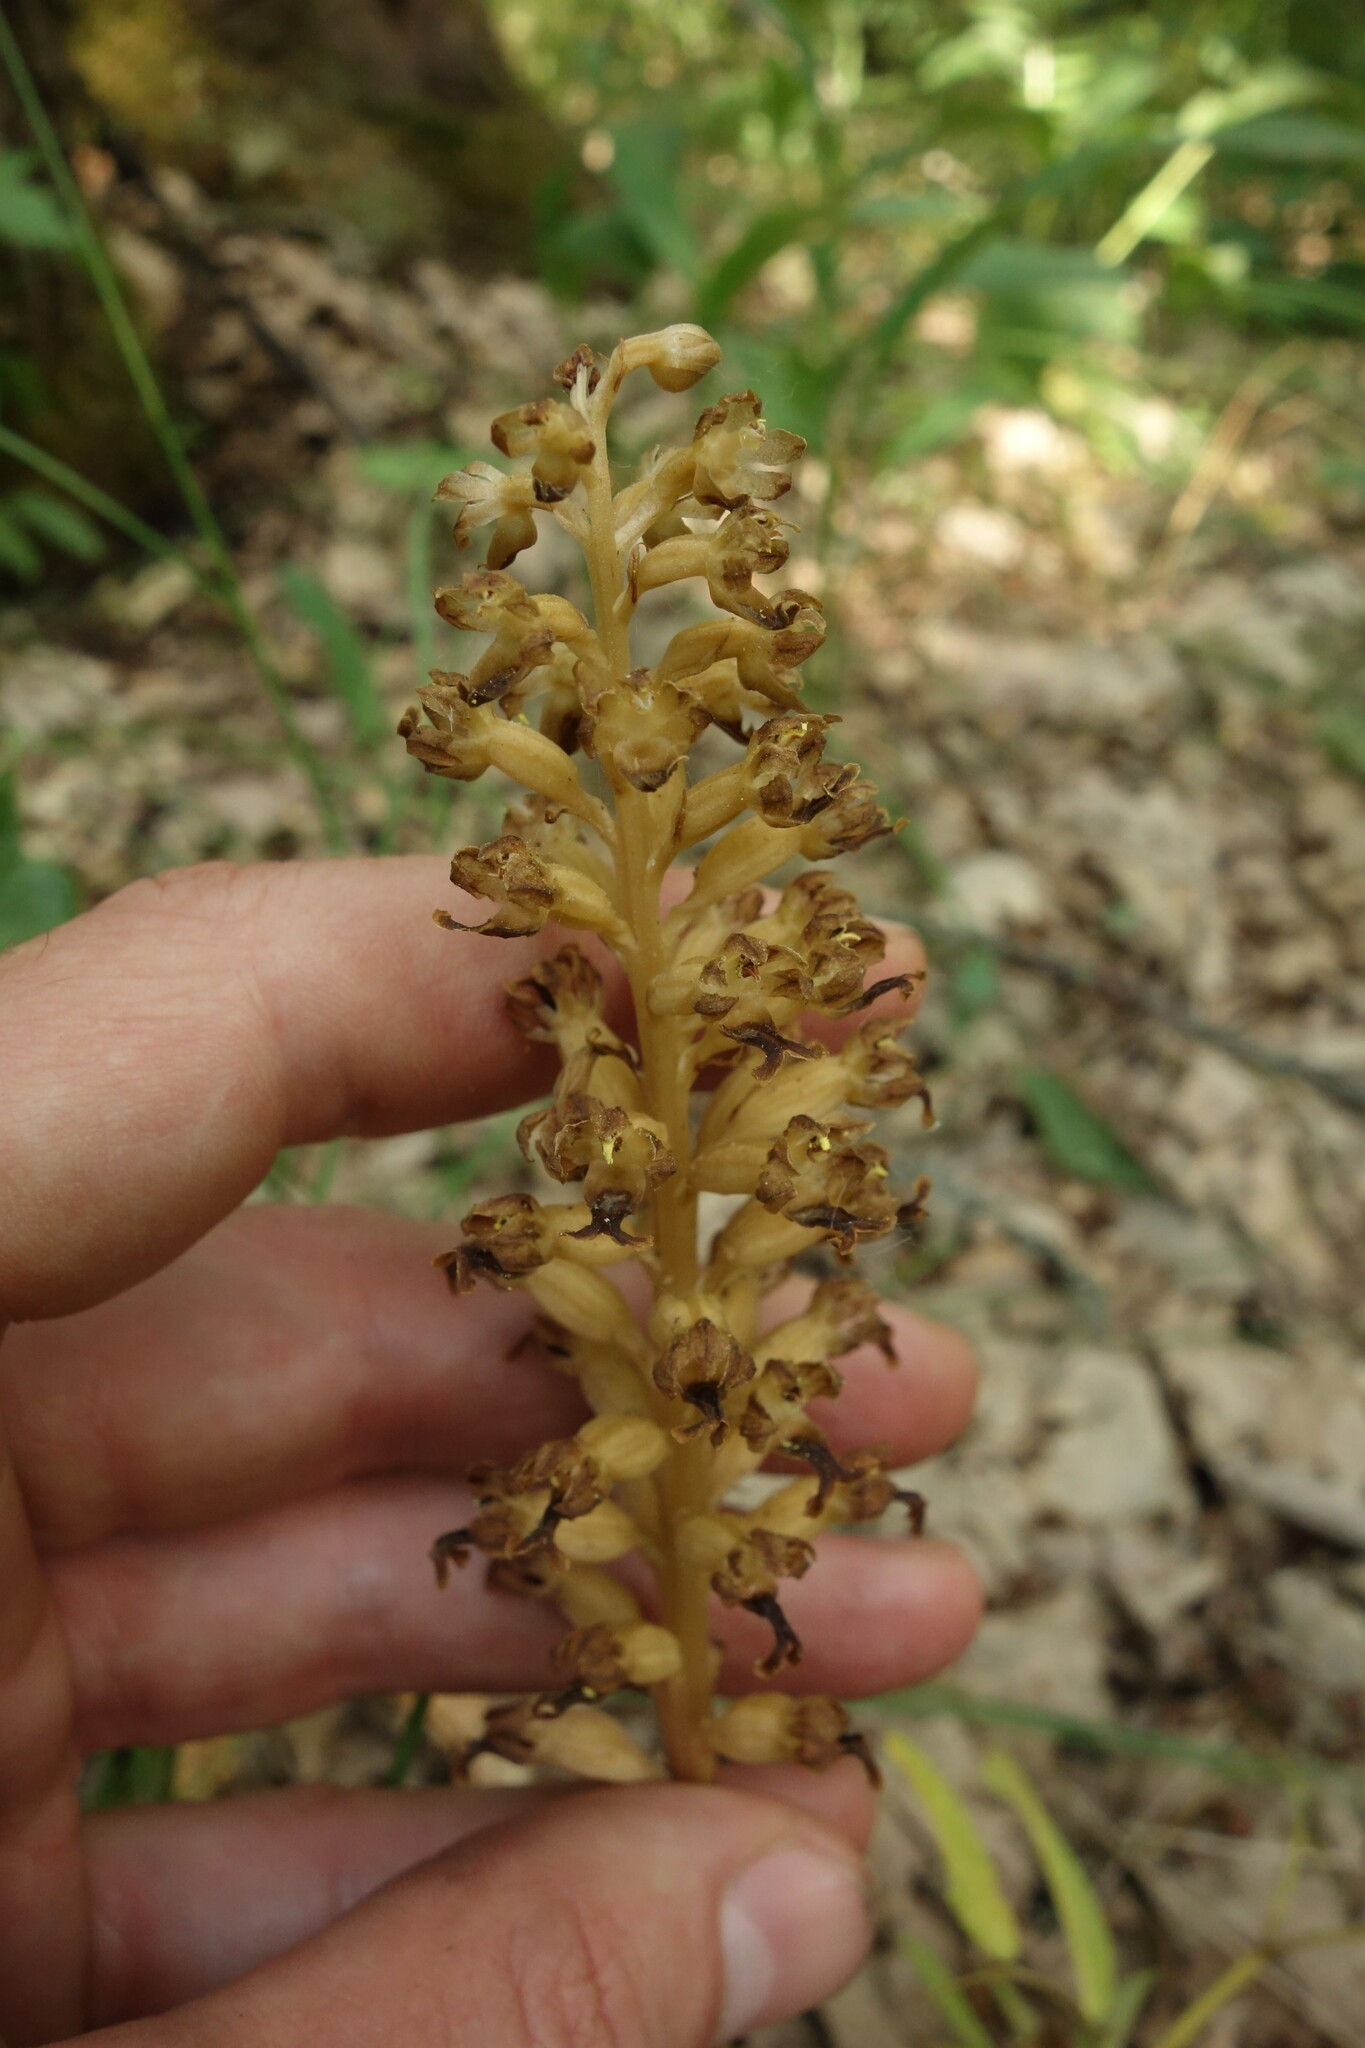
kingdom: Plantae
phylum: Tracheophyta
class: Liliopsida
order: Asparagales
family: Orchidaceae
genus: Neottia
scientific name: Neottia nidus-avis
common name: Bird's-nest orchid
